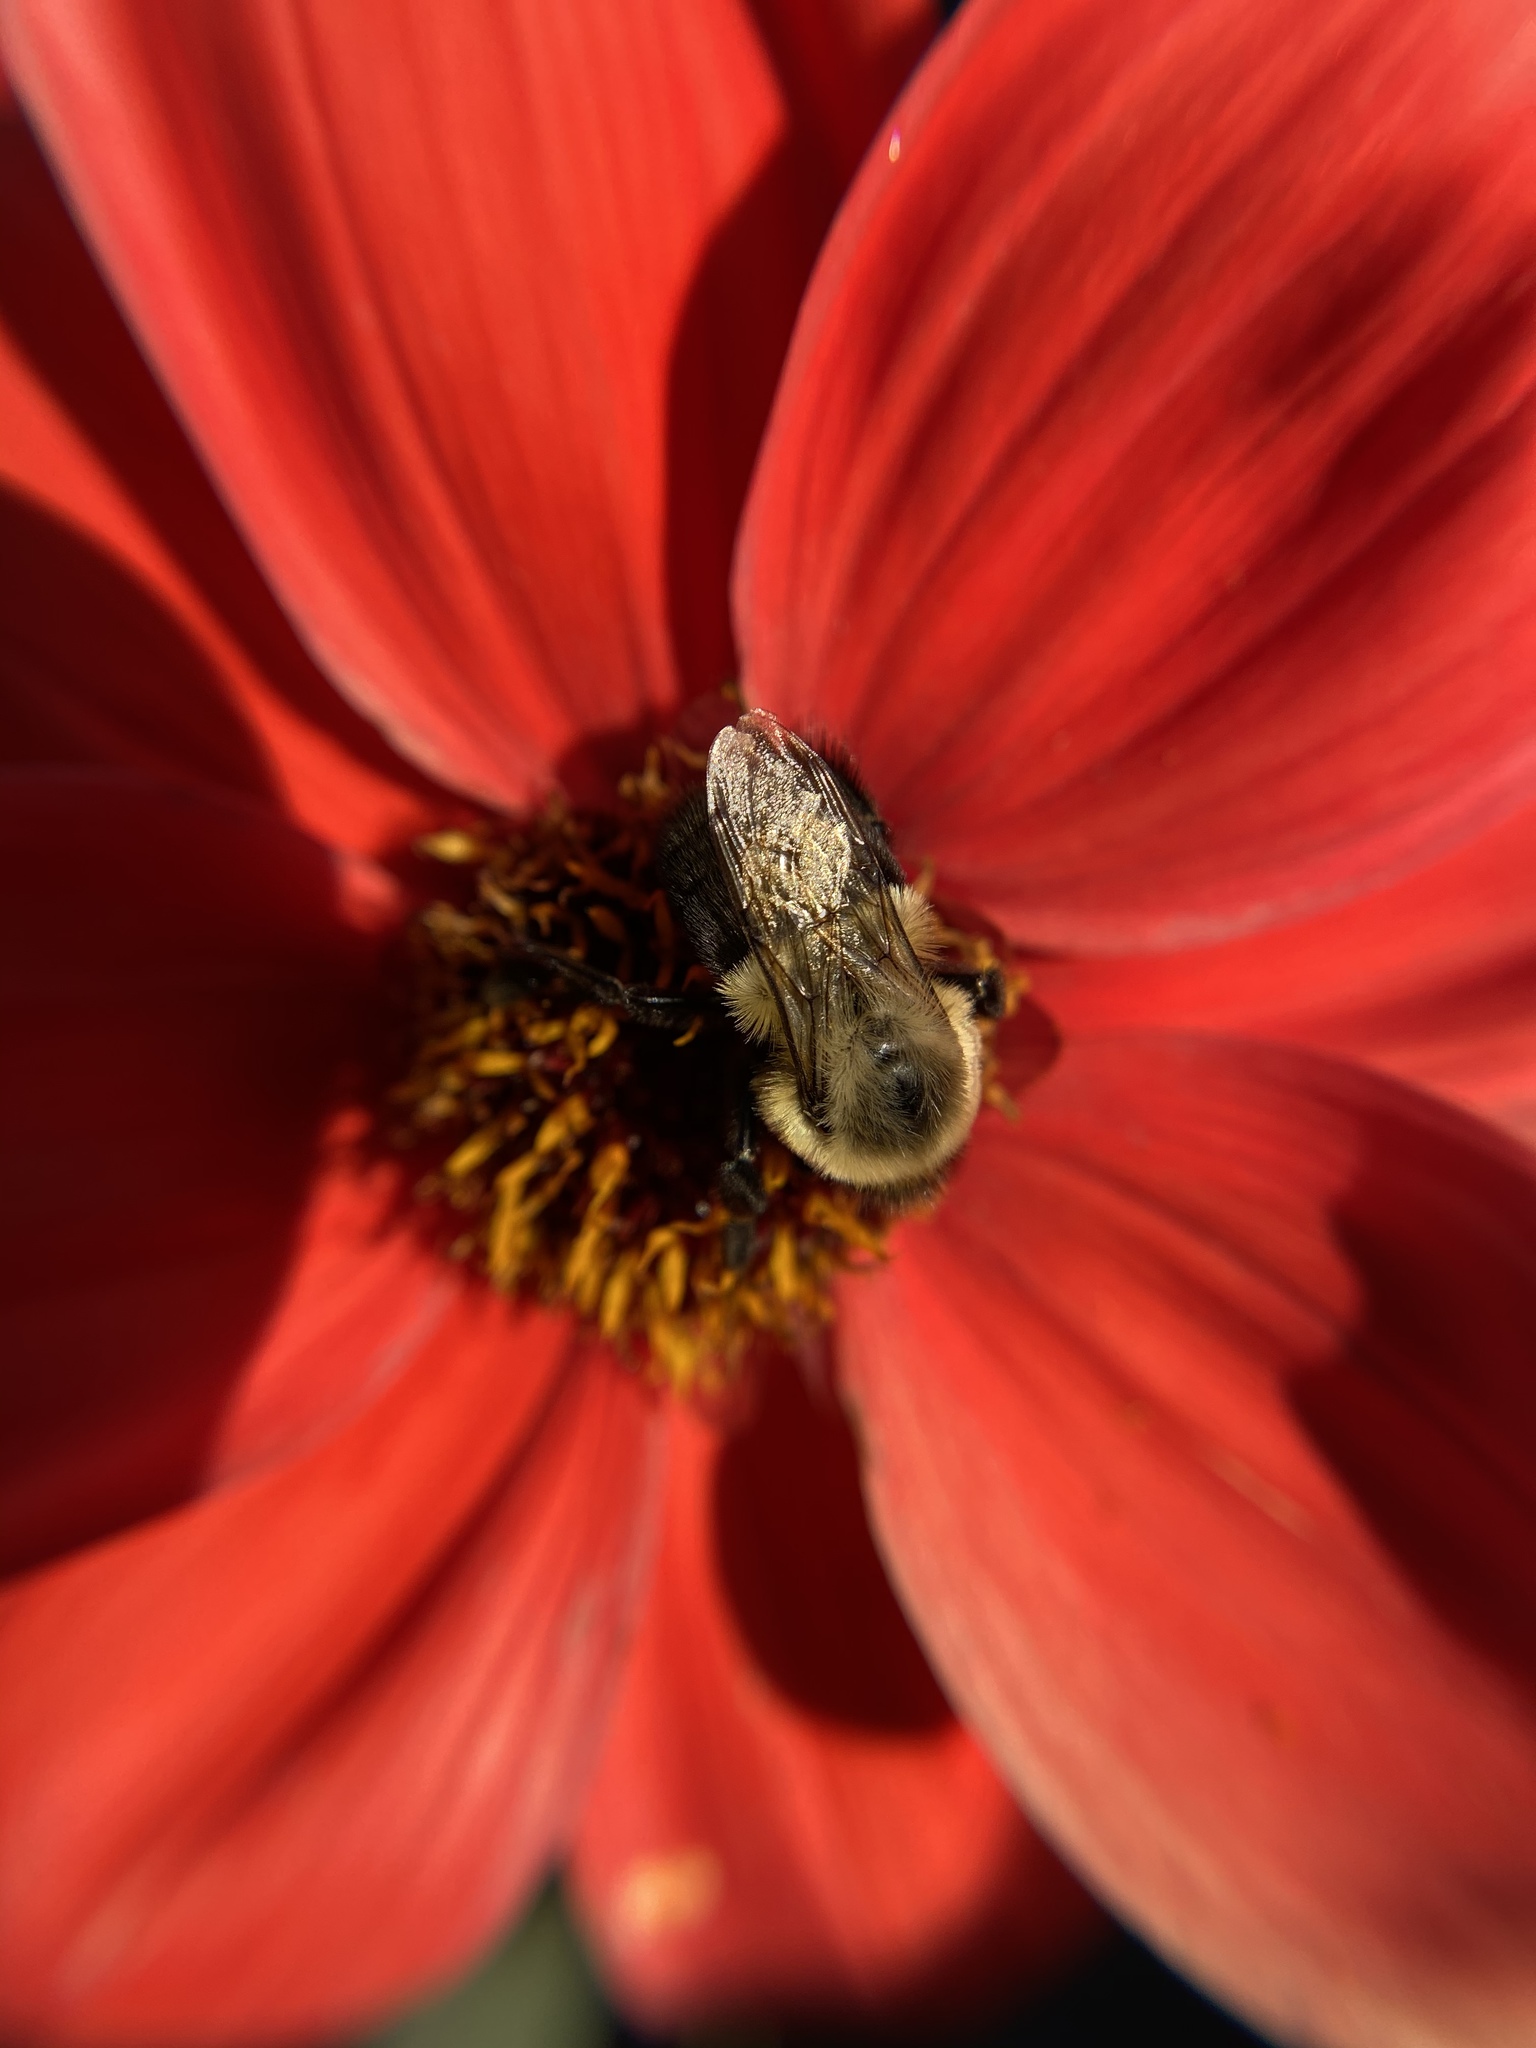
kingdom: Animalia
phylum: Arthropoda
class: Insecta
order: Hymenoptera
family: Apidae
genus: Bombus
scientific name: Bombus impatiens
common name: Common eastern bumble bee
